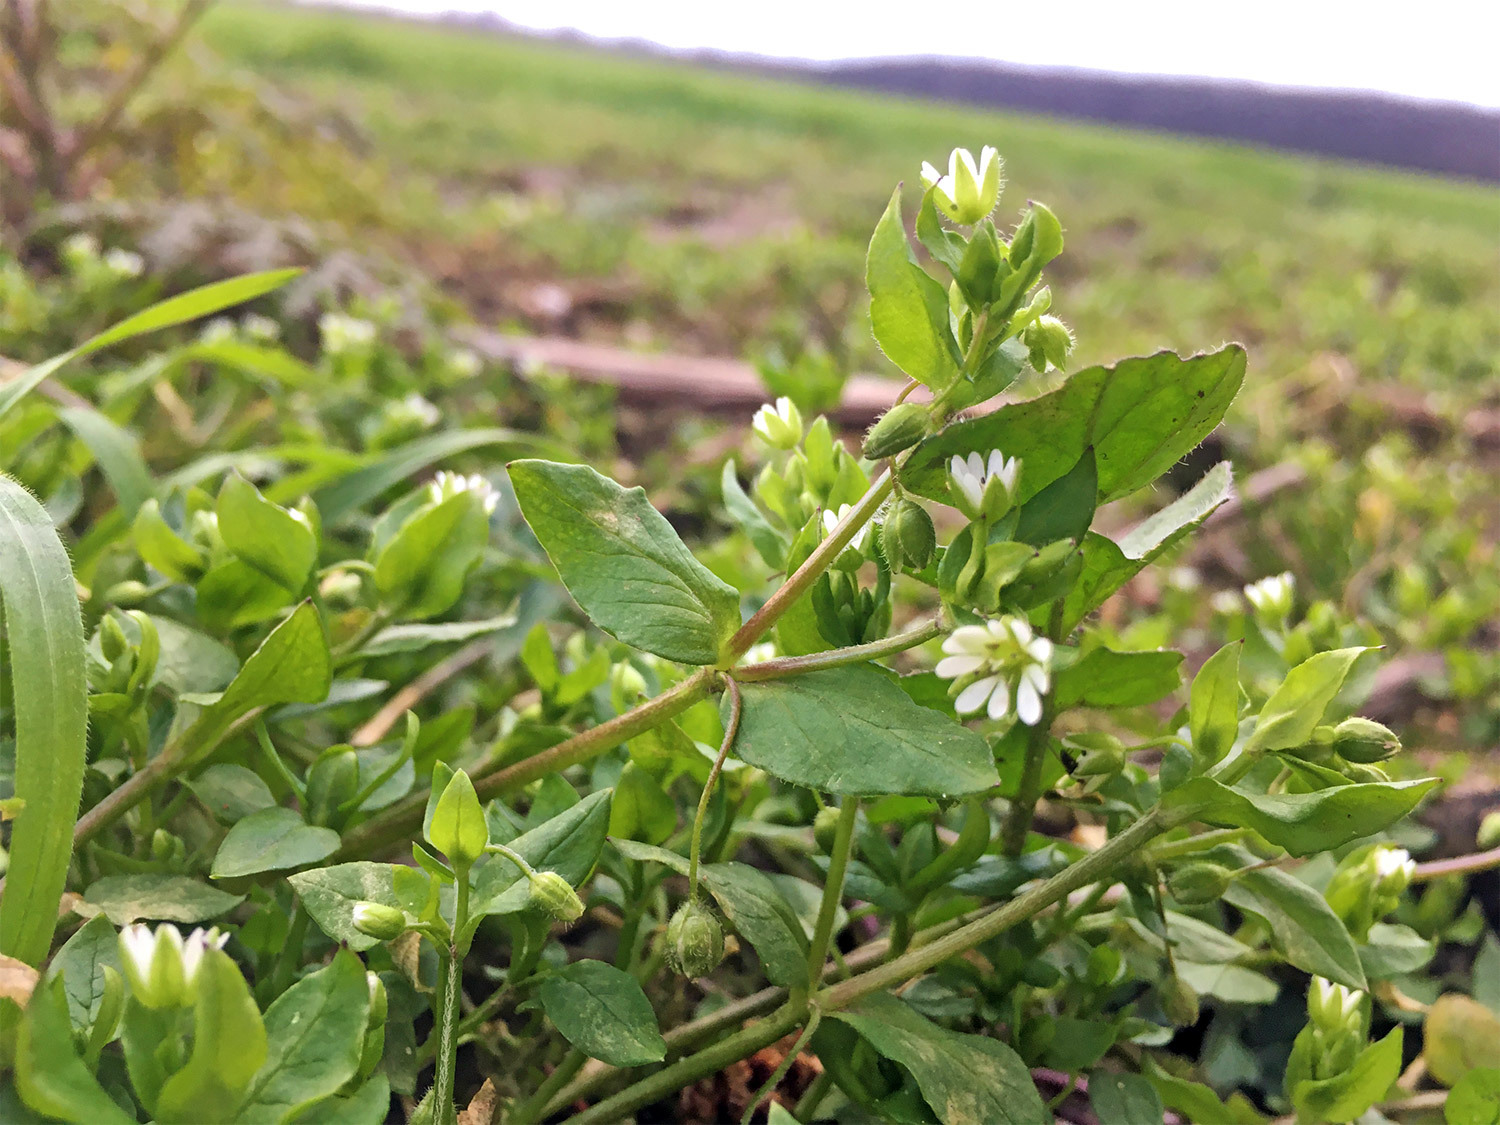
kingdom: Plantae
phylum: Tracheophyta
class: Magnoliopsida
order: Caryophyllales
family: Caryophyllaceae
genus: Stellaria
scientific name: Stellaria media
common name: Common chickweed
